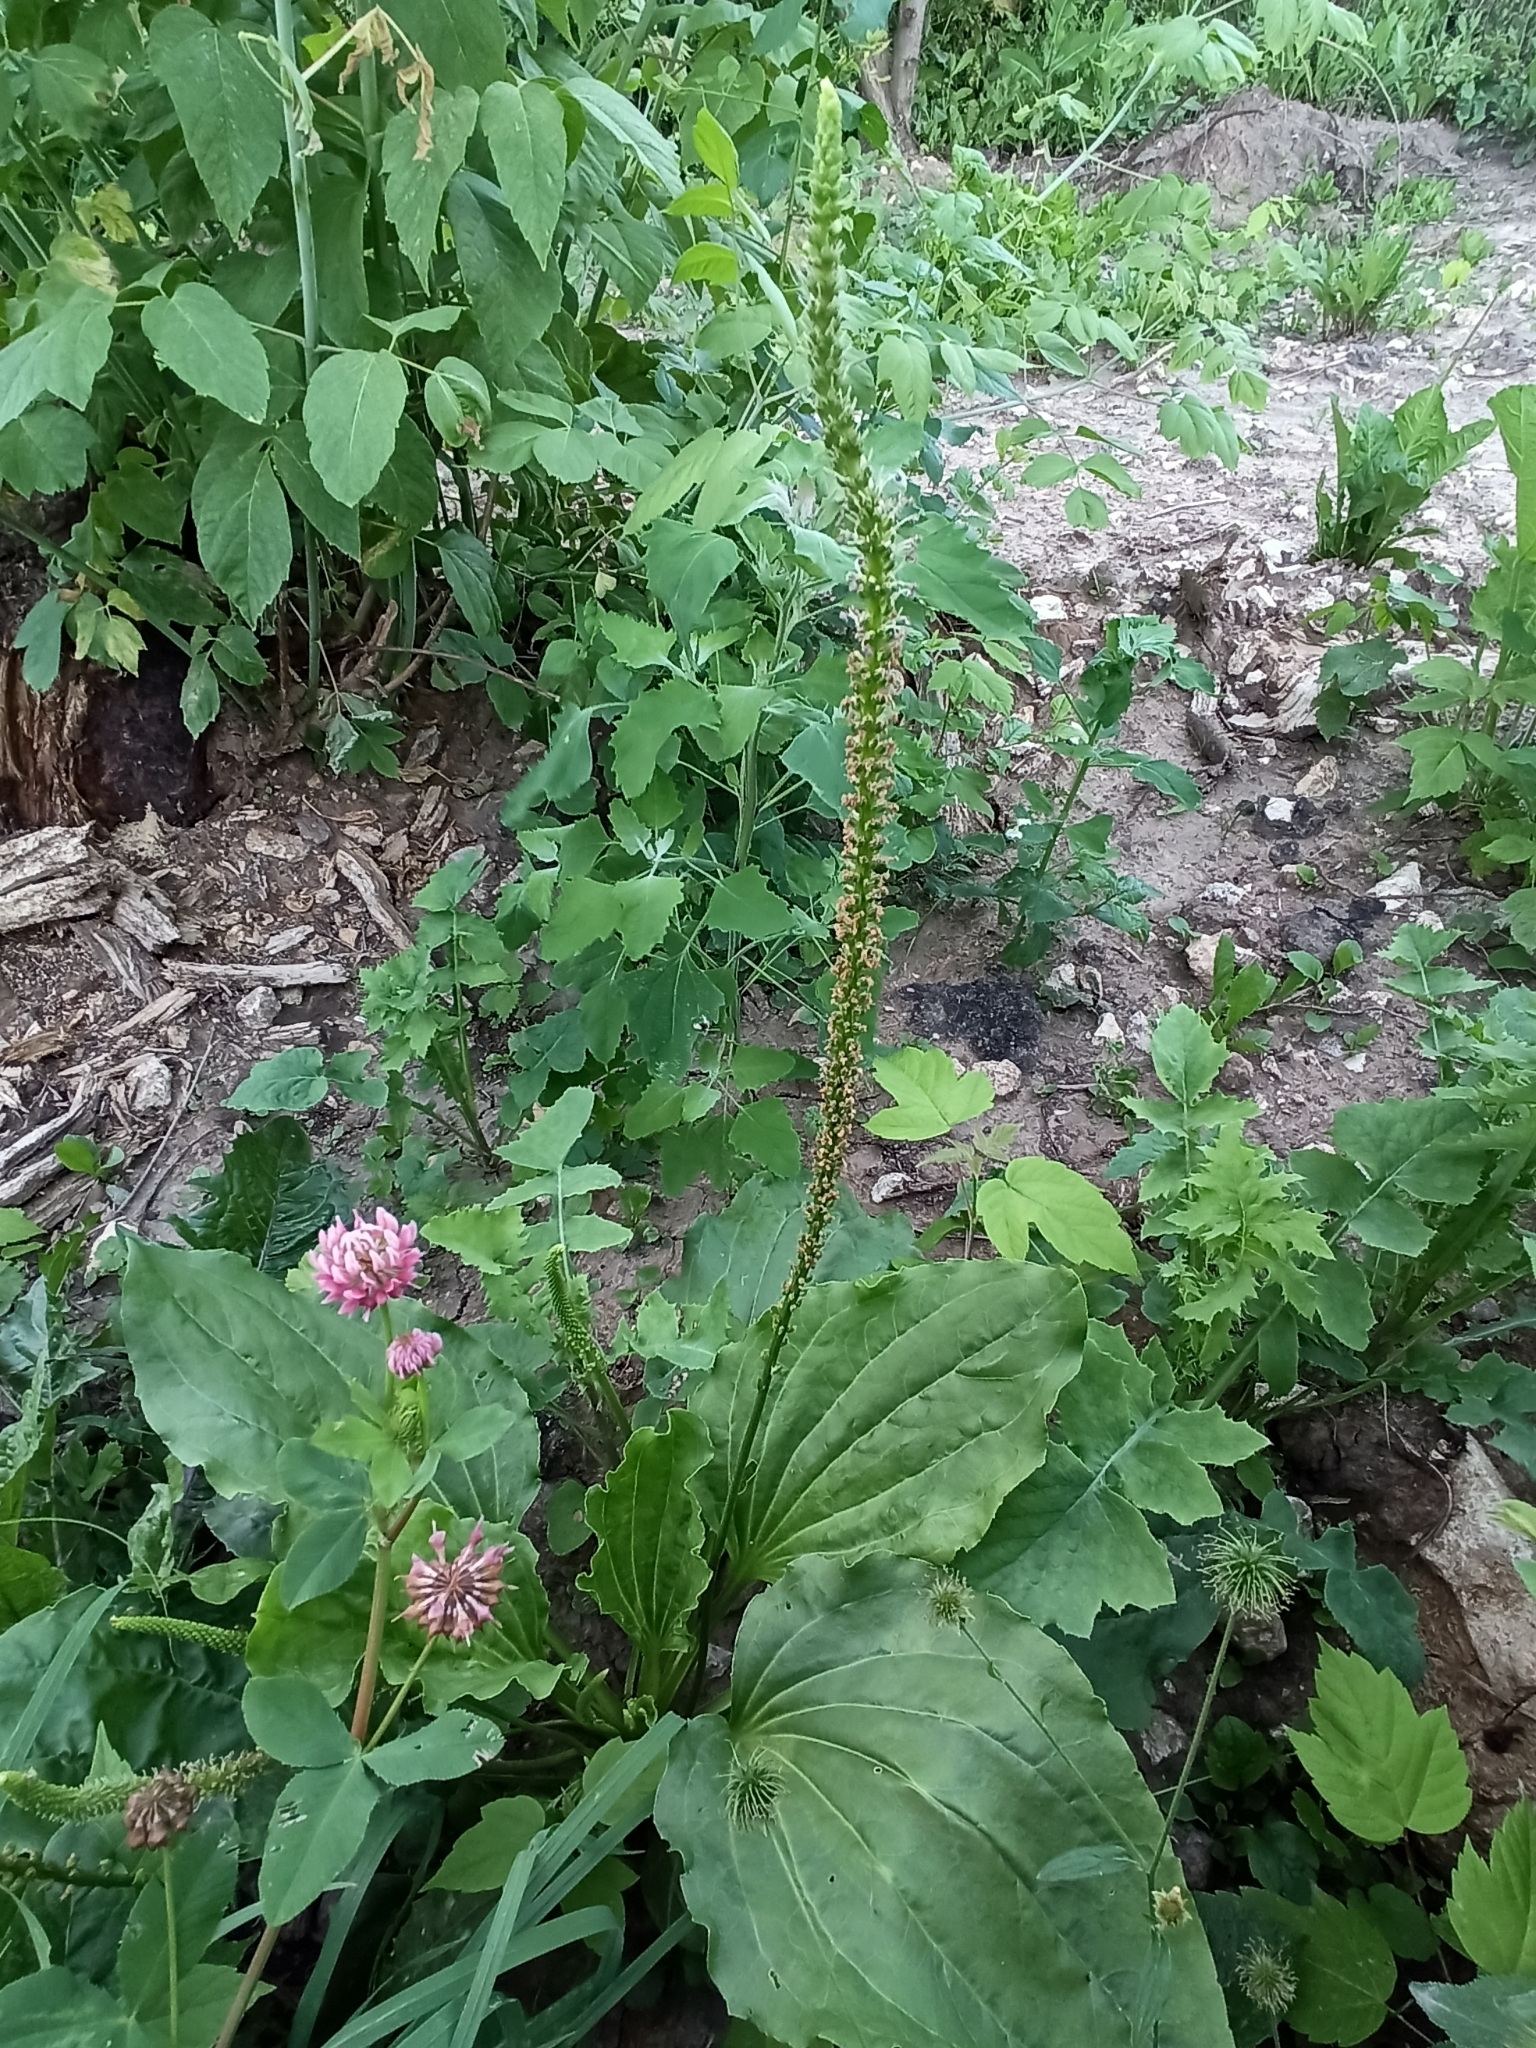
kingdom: Plantae
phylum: Tracheophyta
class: Magnoliopsida
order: Lamiales
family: Plantaginaceae
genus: Plantago
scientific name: Plantago major
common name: Common plantain
